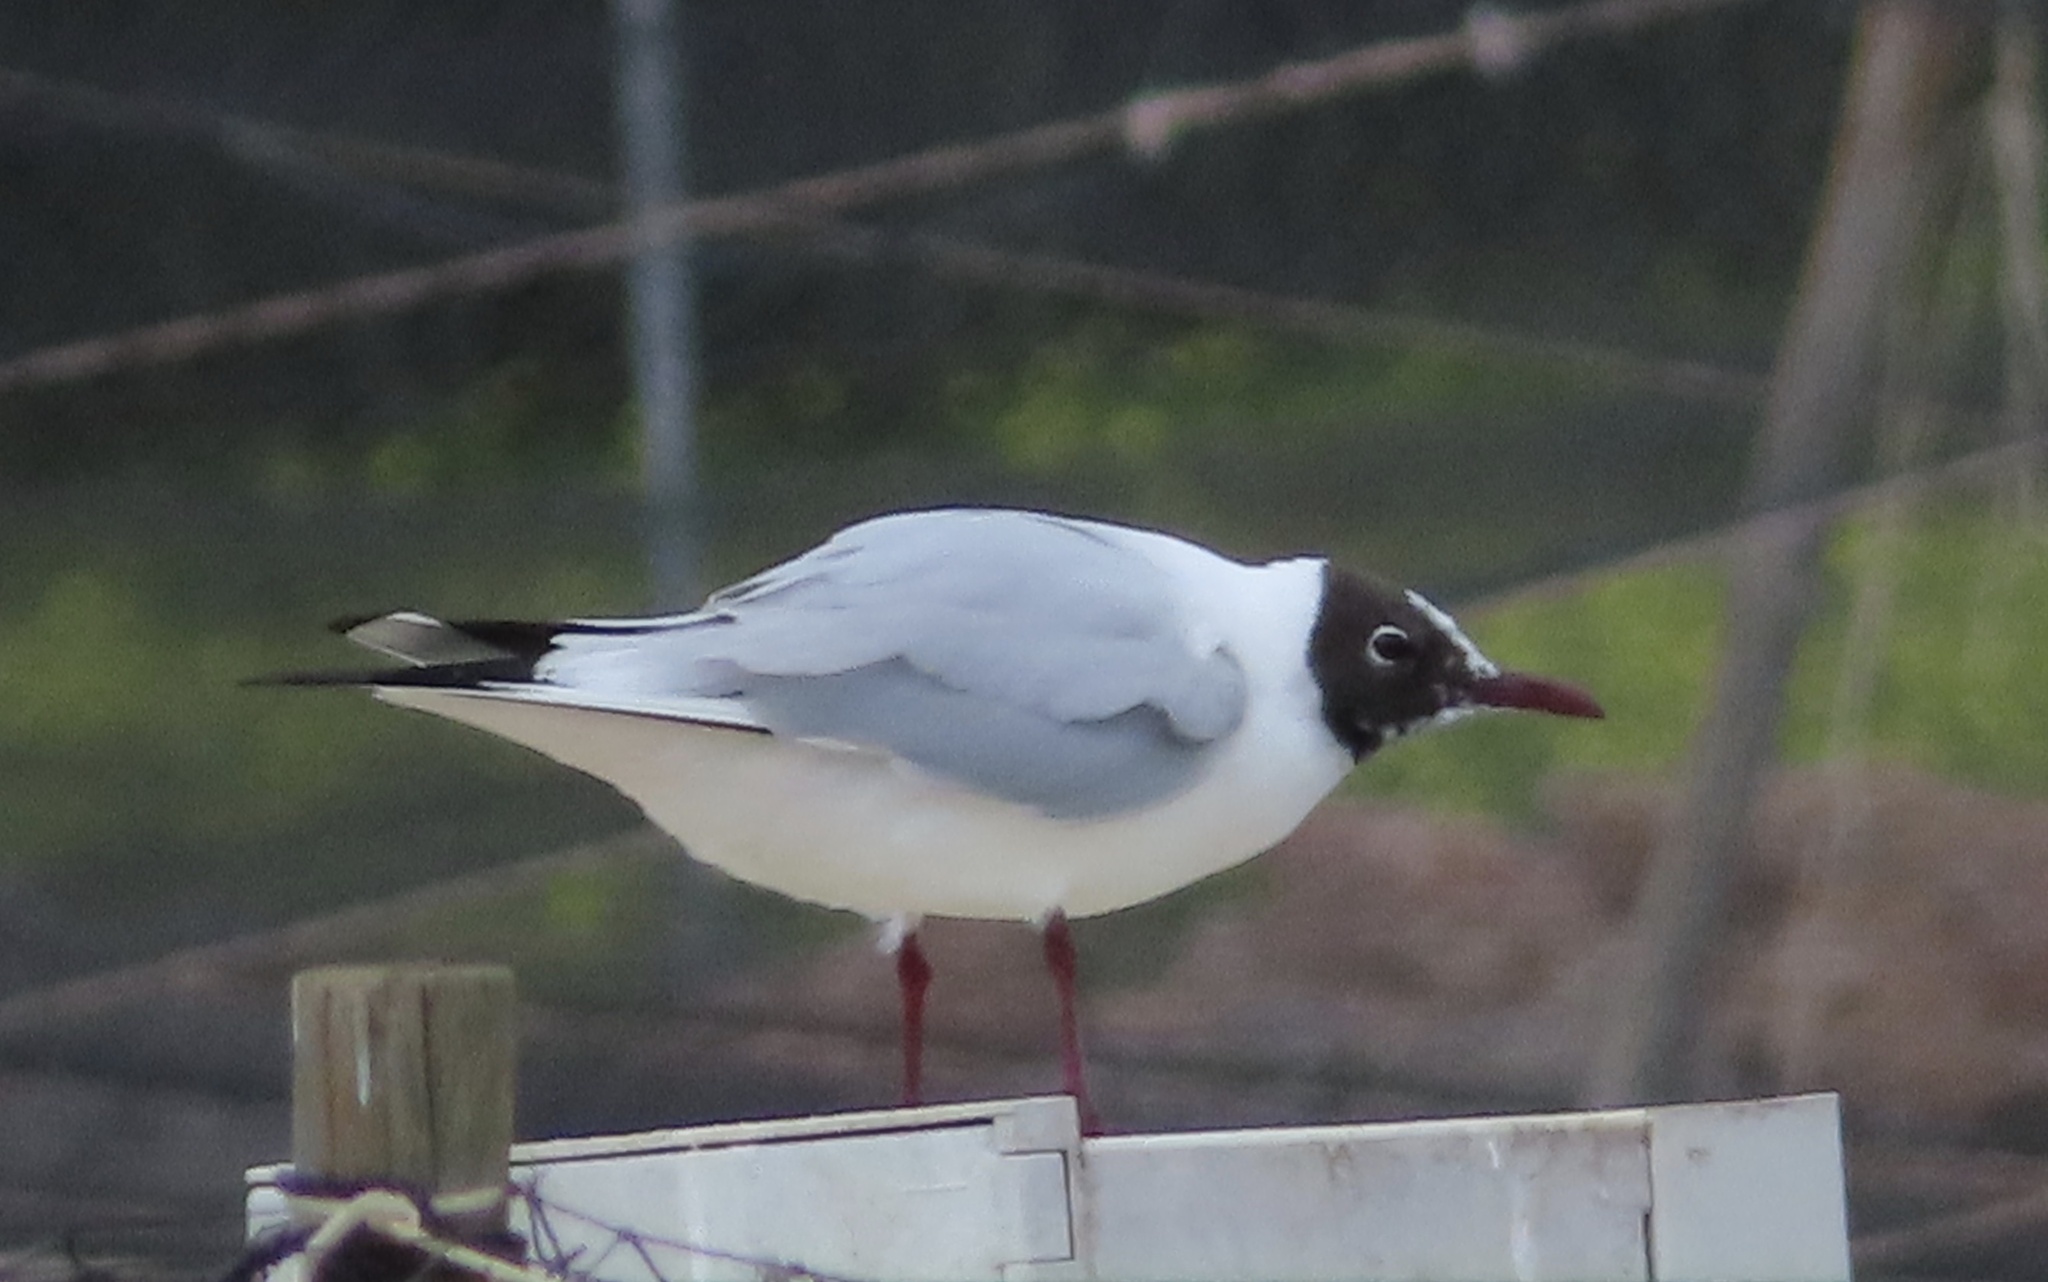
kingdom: Animalia
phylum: Chordata
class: Aves
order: Charadriiformes
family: Laridae
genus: Chroicocephalus
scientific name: Chroicocephalus ridibundus
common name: Black-headed gull
